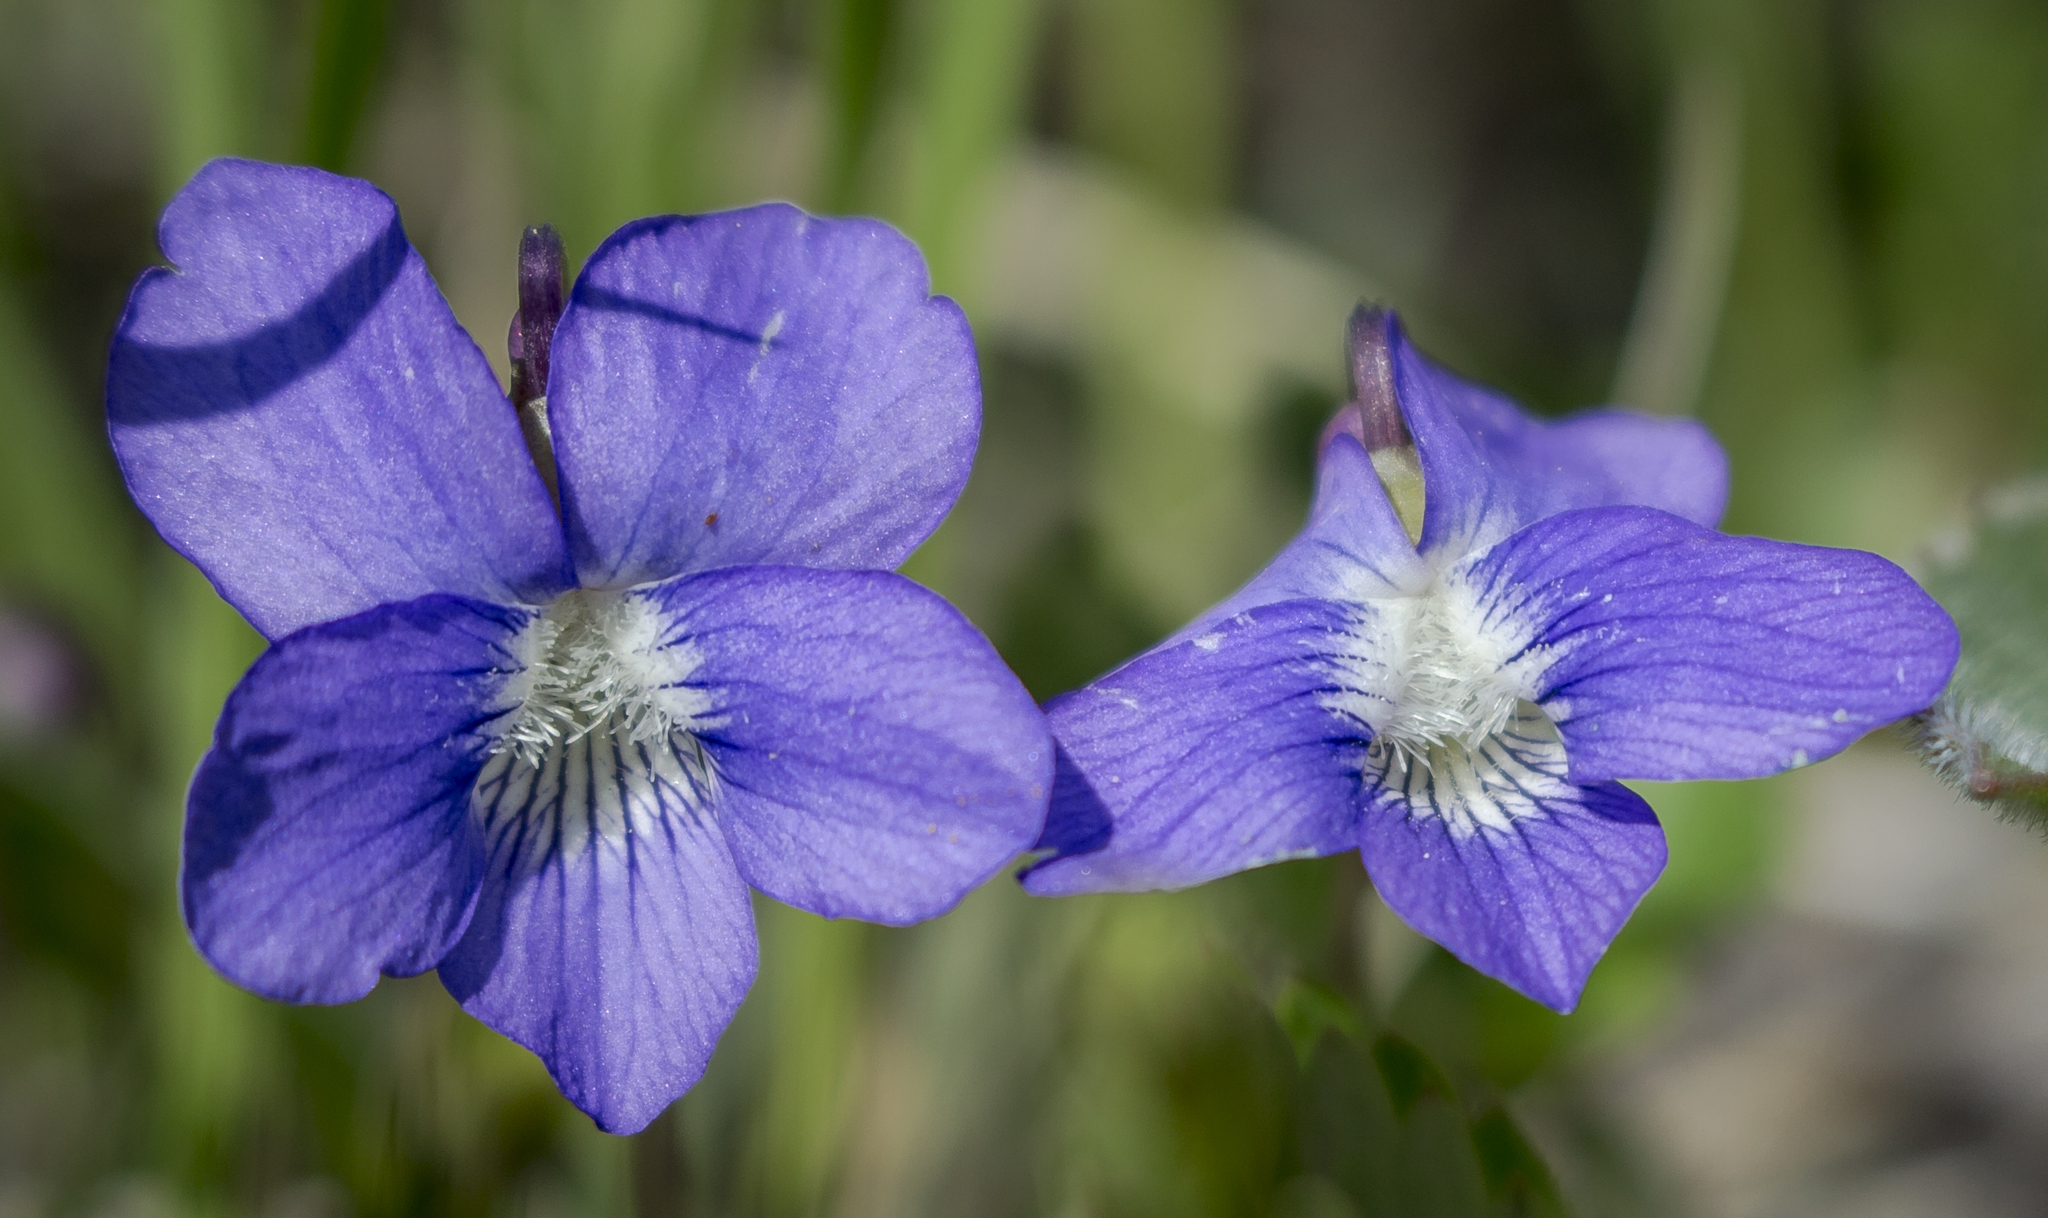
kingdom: Plantae
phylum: Tracheophyta
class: Magnoliopsida
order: Malpighiales
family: Violaceae
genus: Viola
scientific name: Viola sororia
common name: Dooryard violet
